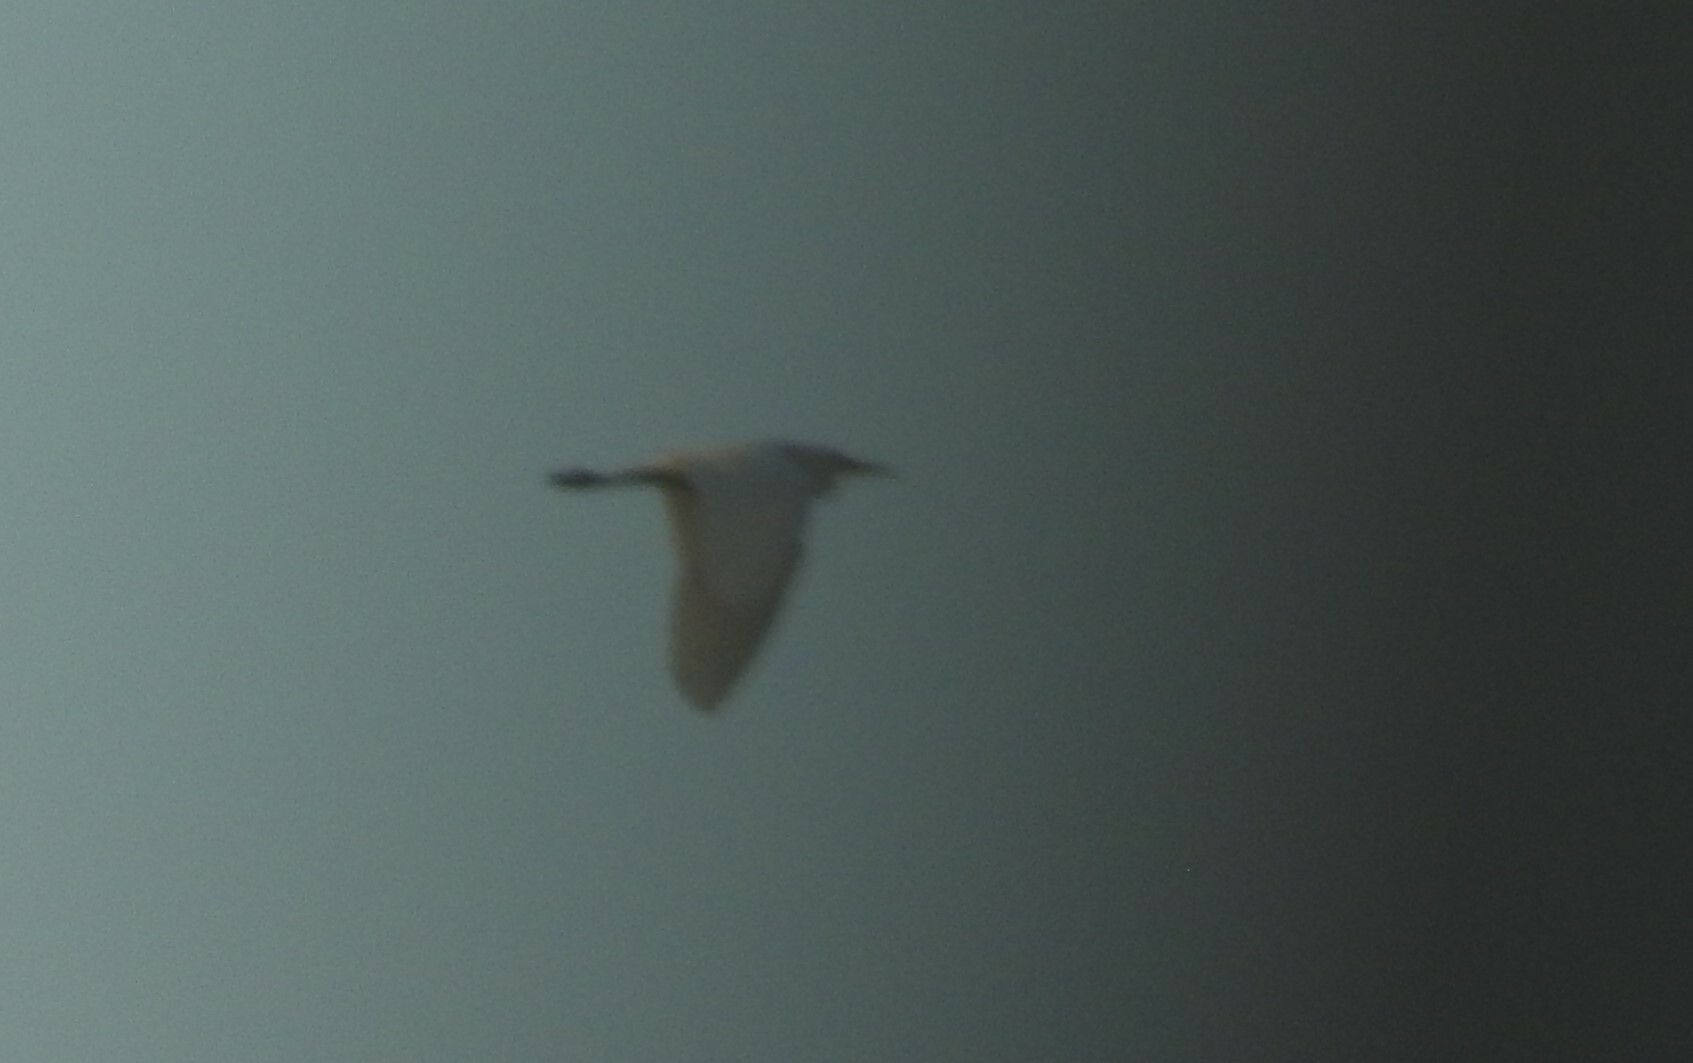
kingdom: Animalia
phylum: Chordata
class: Aves
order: Pelecaniformes
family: Ardeidae
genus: Bubulcus
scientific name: Bubulcus ibis
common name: Cattle egret
